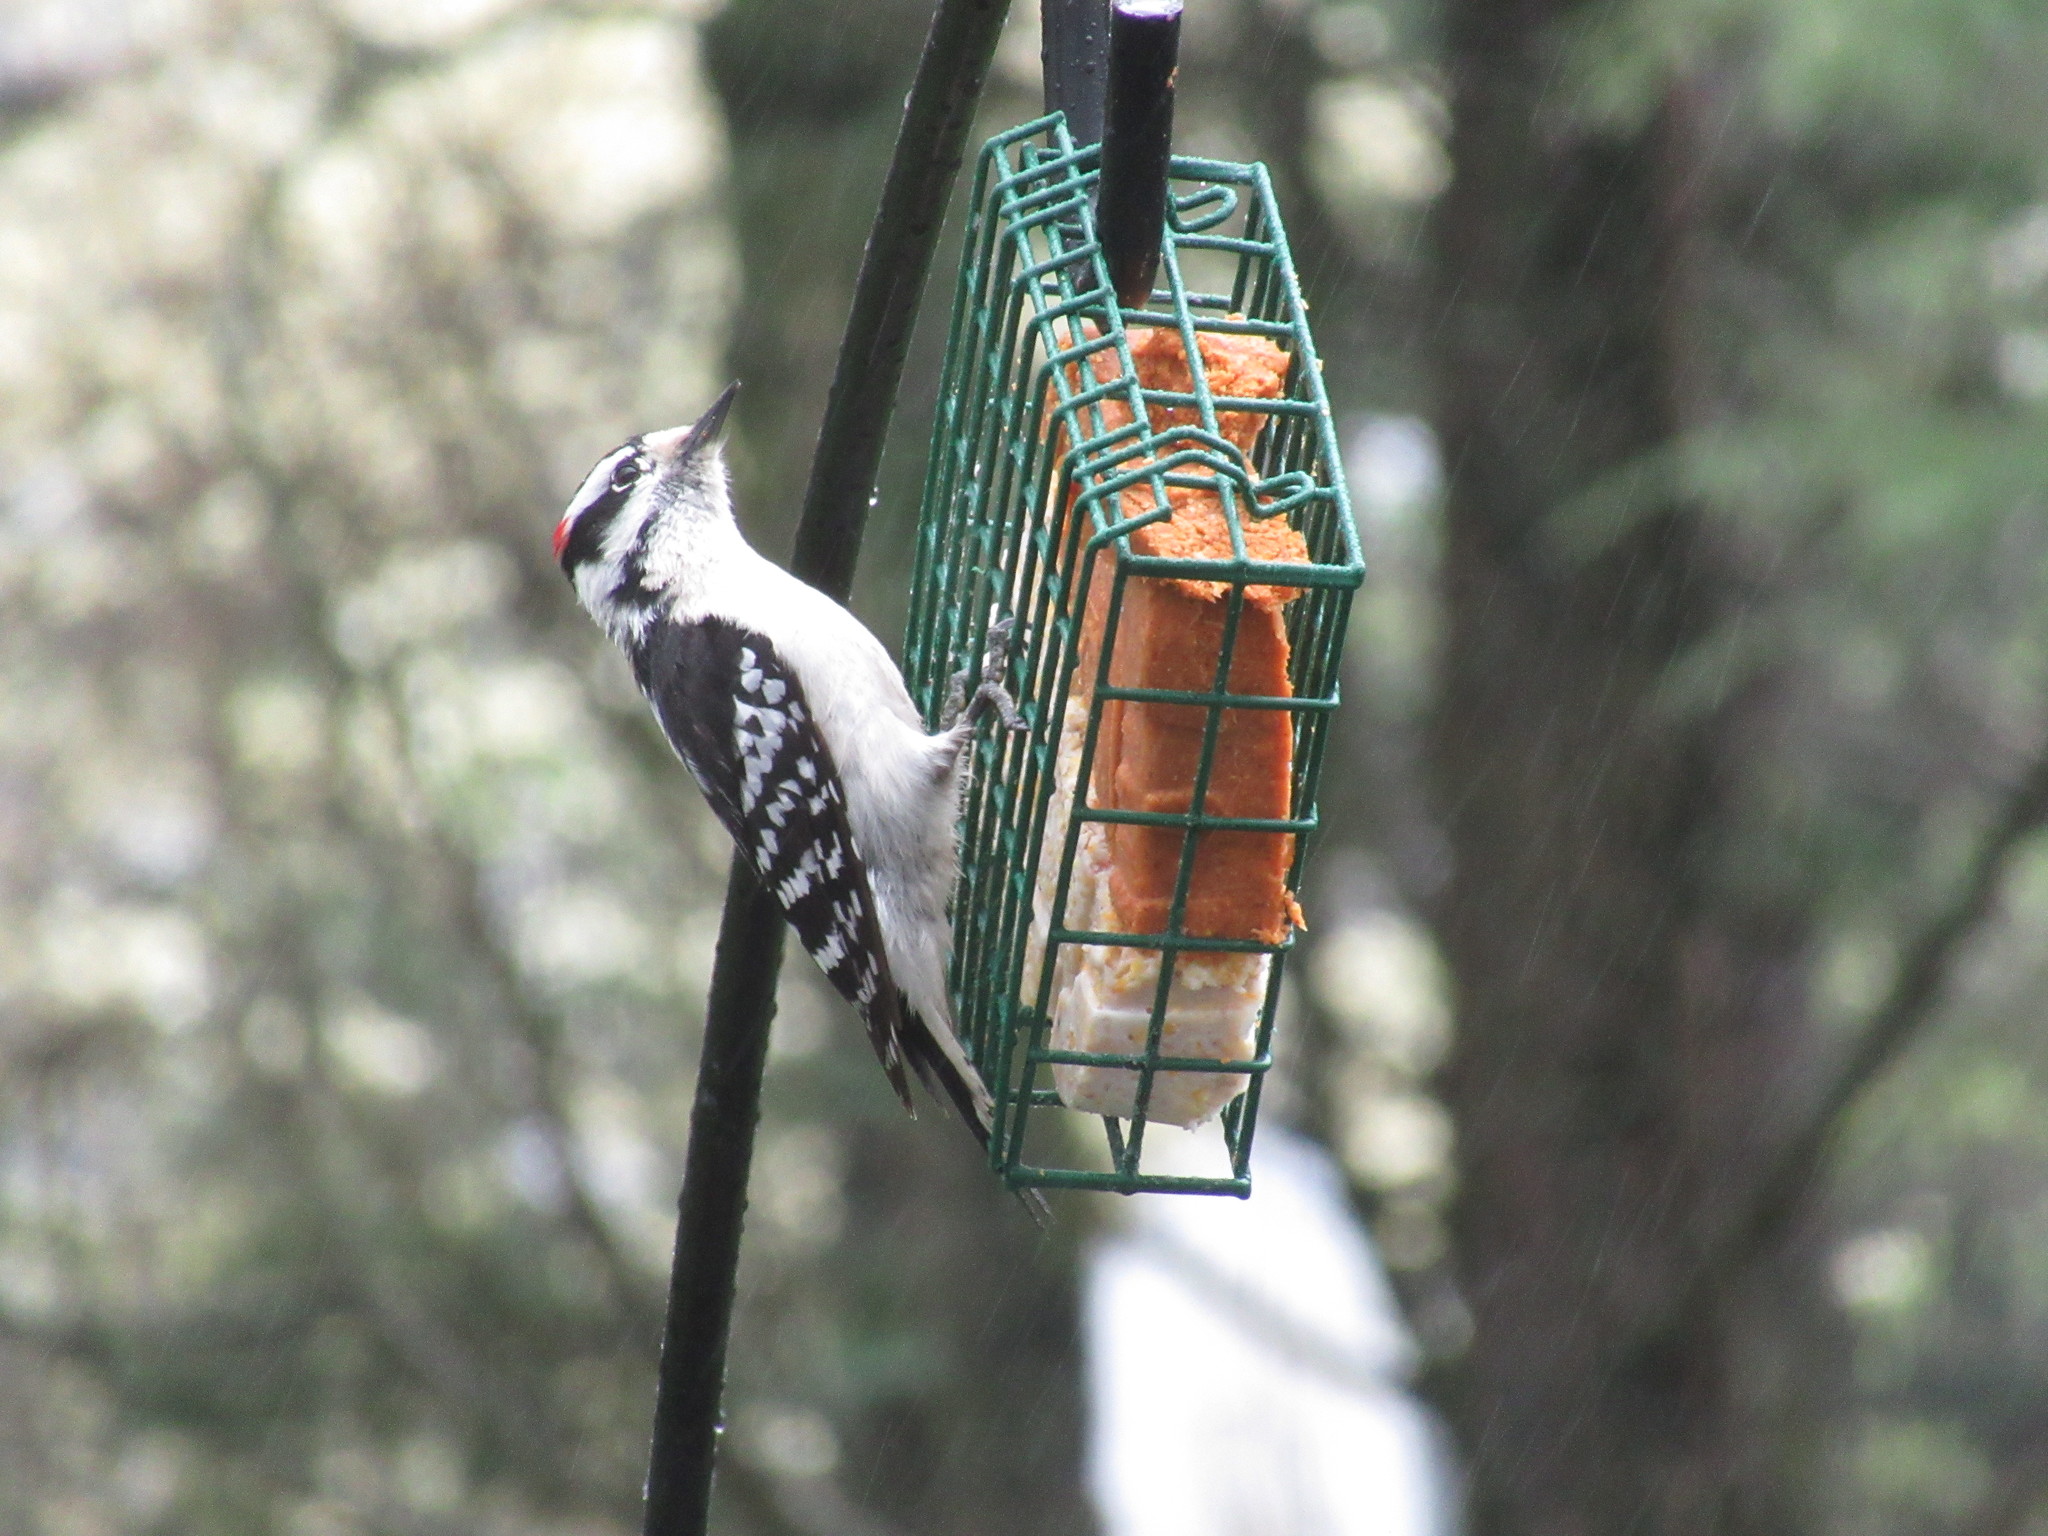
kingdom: Animalia
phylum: Chordata
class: Aves
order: Piciformes
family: Picidae
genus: Dryobates
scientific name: Dryobates pubescens
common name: Downy woodpecker
